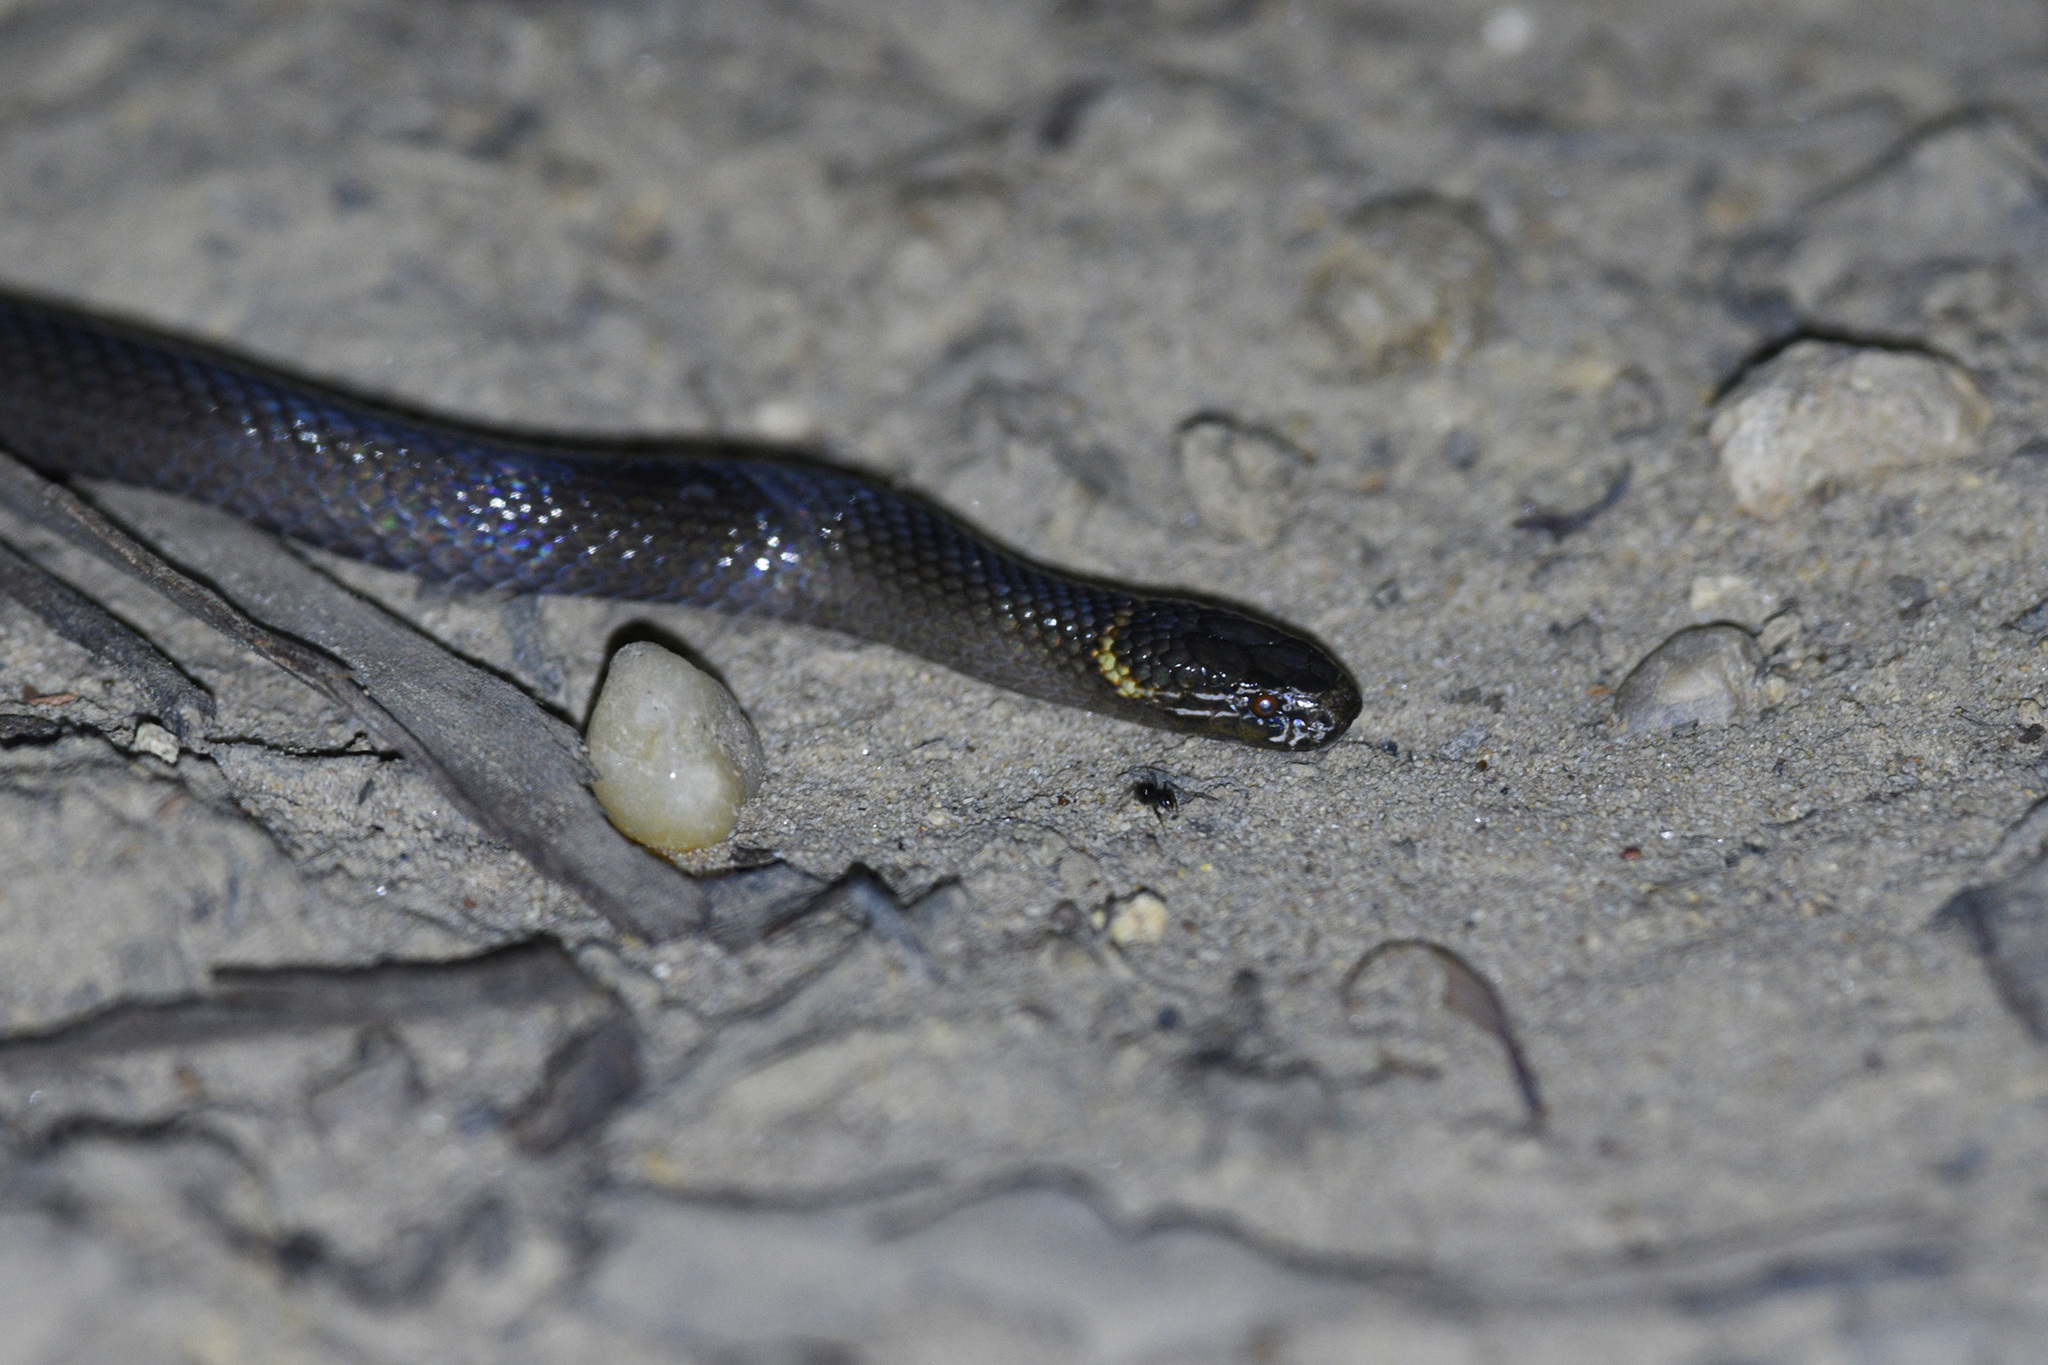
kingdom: Animalia
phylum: Chordata
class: Squamata
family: Elapidae
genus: Cacophis
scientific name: Cacophis krefftii
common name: Dwarf crowned snake
